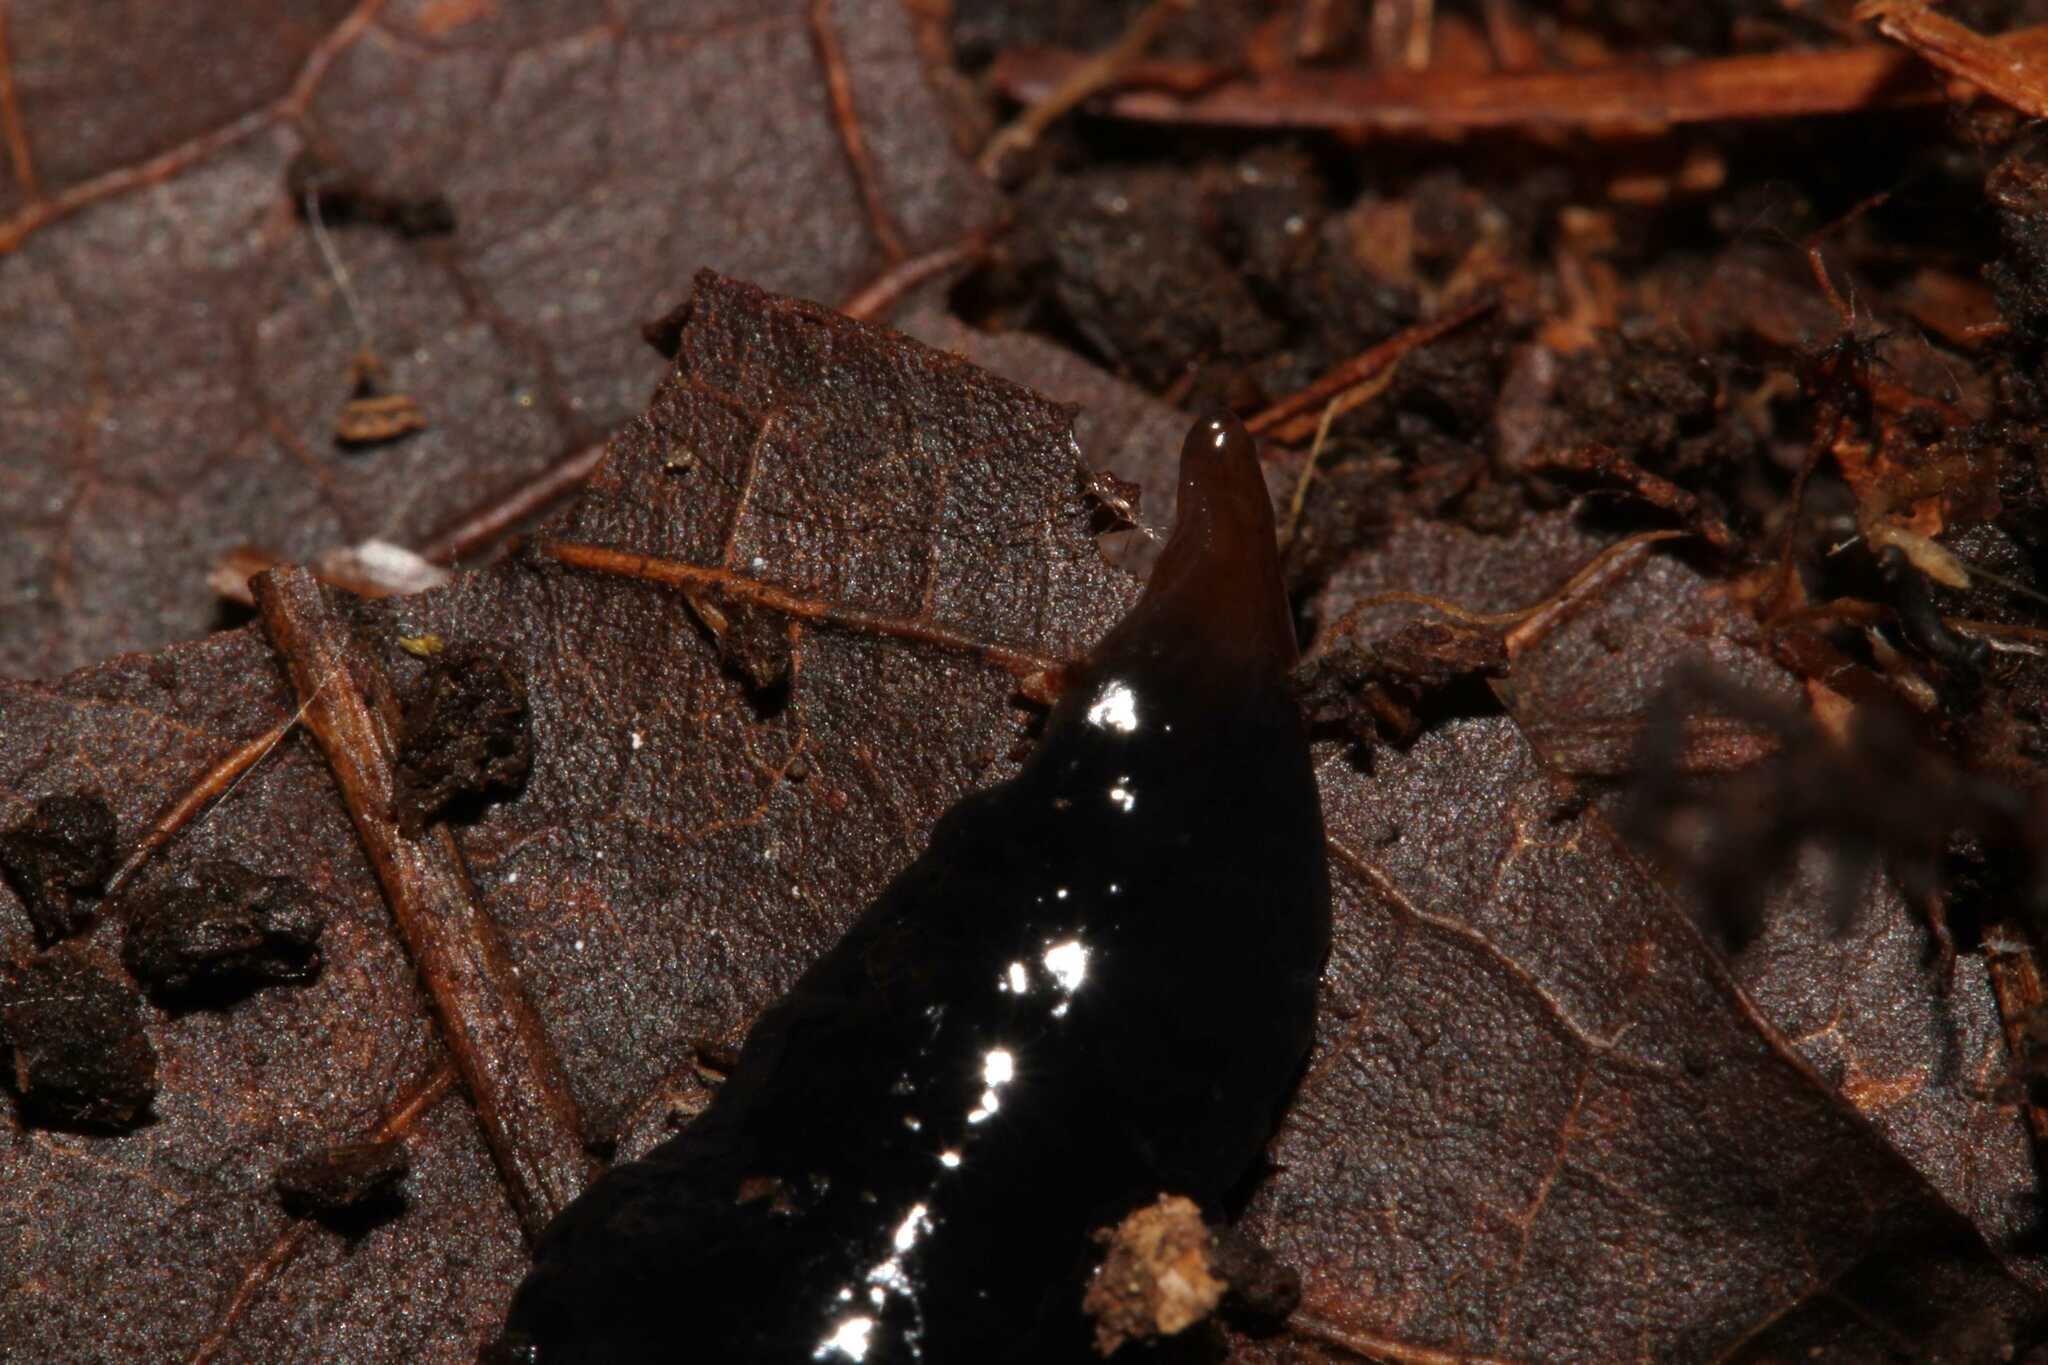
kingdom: Animalia
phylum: Platyhelminthes
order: Tricladida
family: Geoplanidae
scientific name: Geoplanidae
